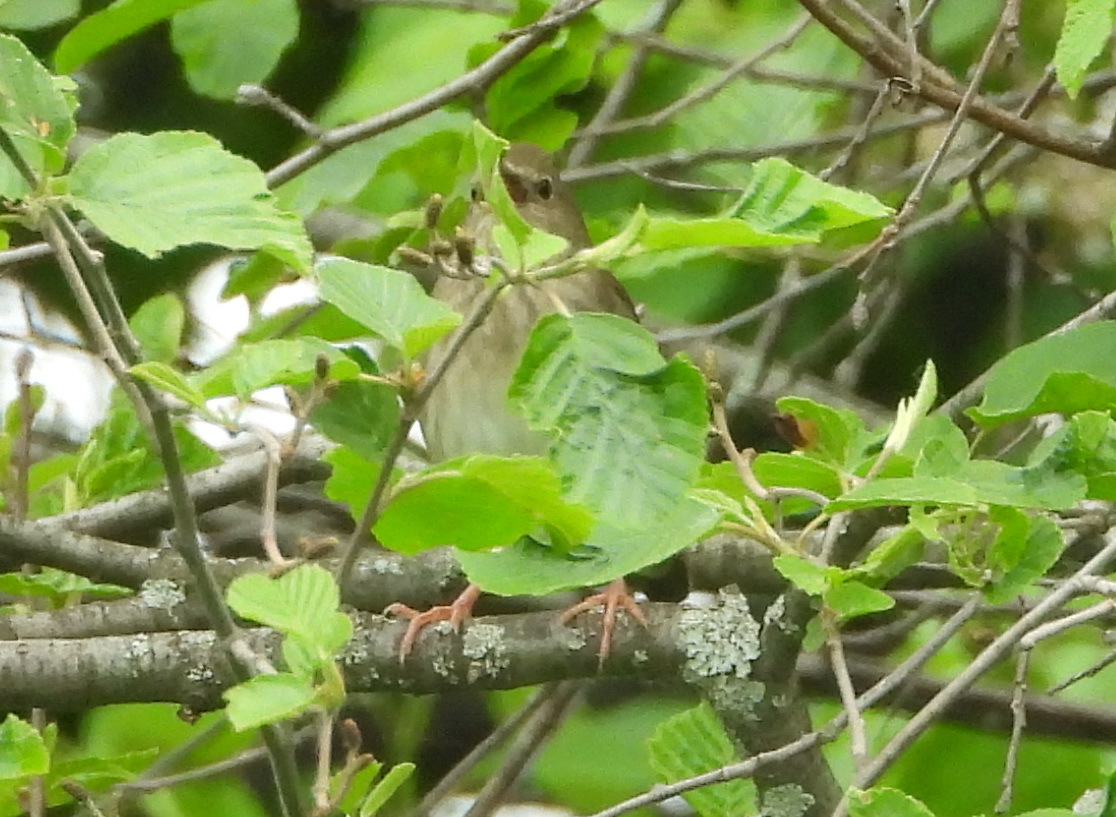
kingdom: Animalia
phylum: Chordata
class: Aves
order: Passeriformes
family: Locustellidae
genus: Locustella
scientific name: Locustella fluviatilis
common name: River warbler
